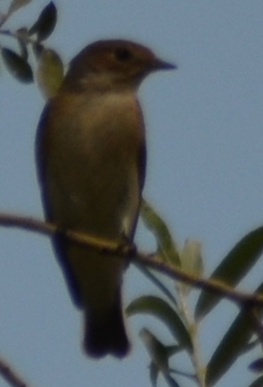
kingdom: Animalia
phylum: Chordata
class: Aves
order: Passeriformes
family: Muscicapidae
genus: Ficedula
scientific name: Ficedula hypoleuca
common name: European pied flycatcher
